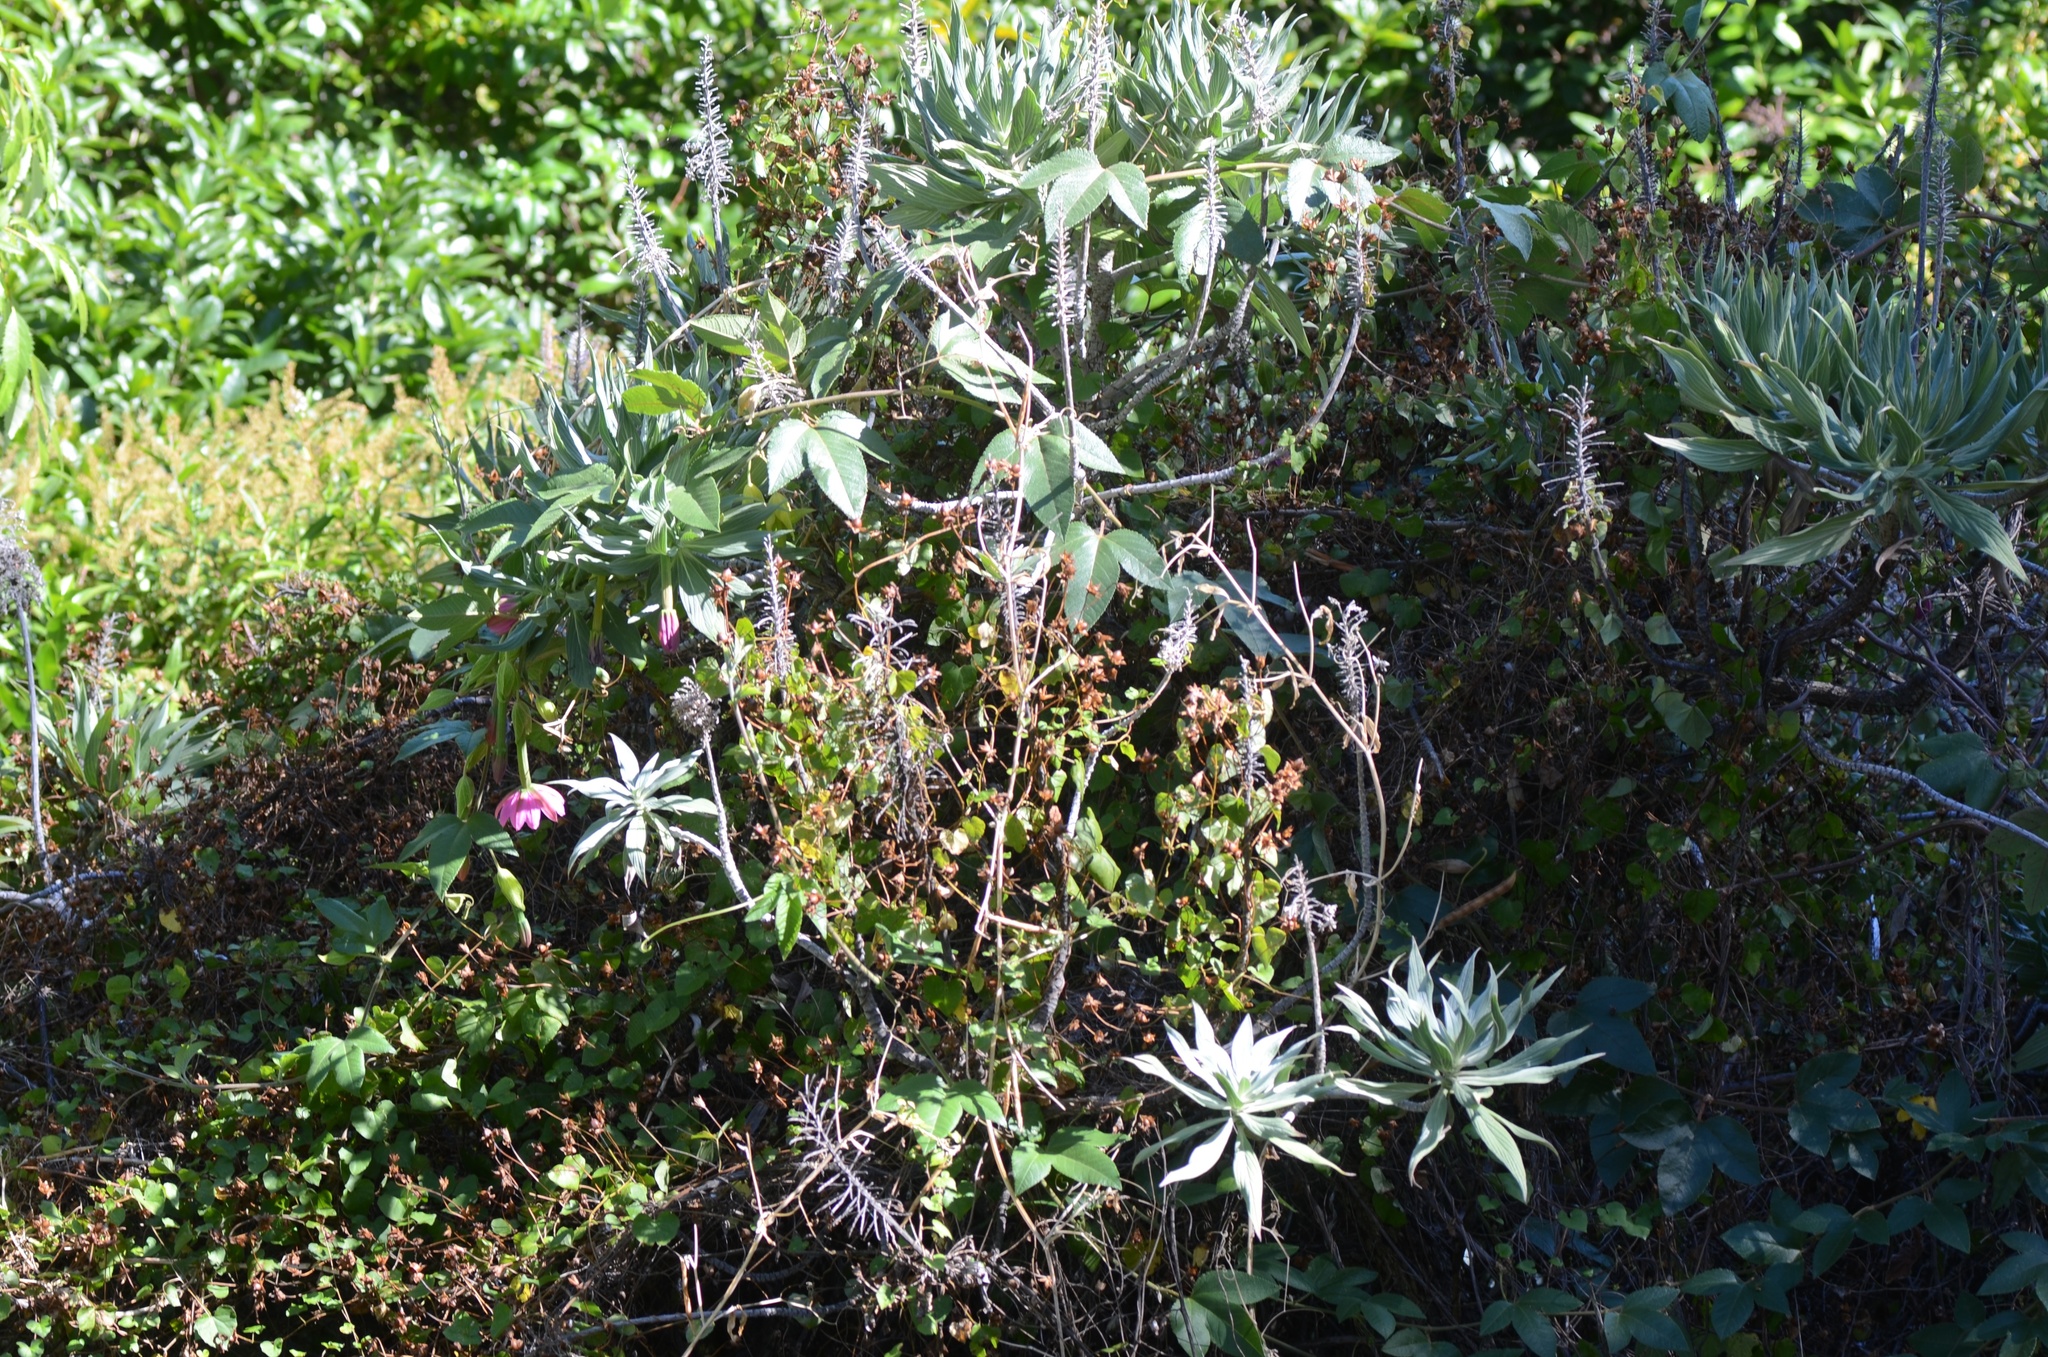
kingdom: Plantae
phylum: Tracheophyta
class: Magnoliopsida
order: Malpighiales
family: Passifloraceae
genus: Passiflora
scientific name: Passiflora tripartita
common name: Banana poka
